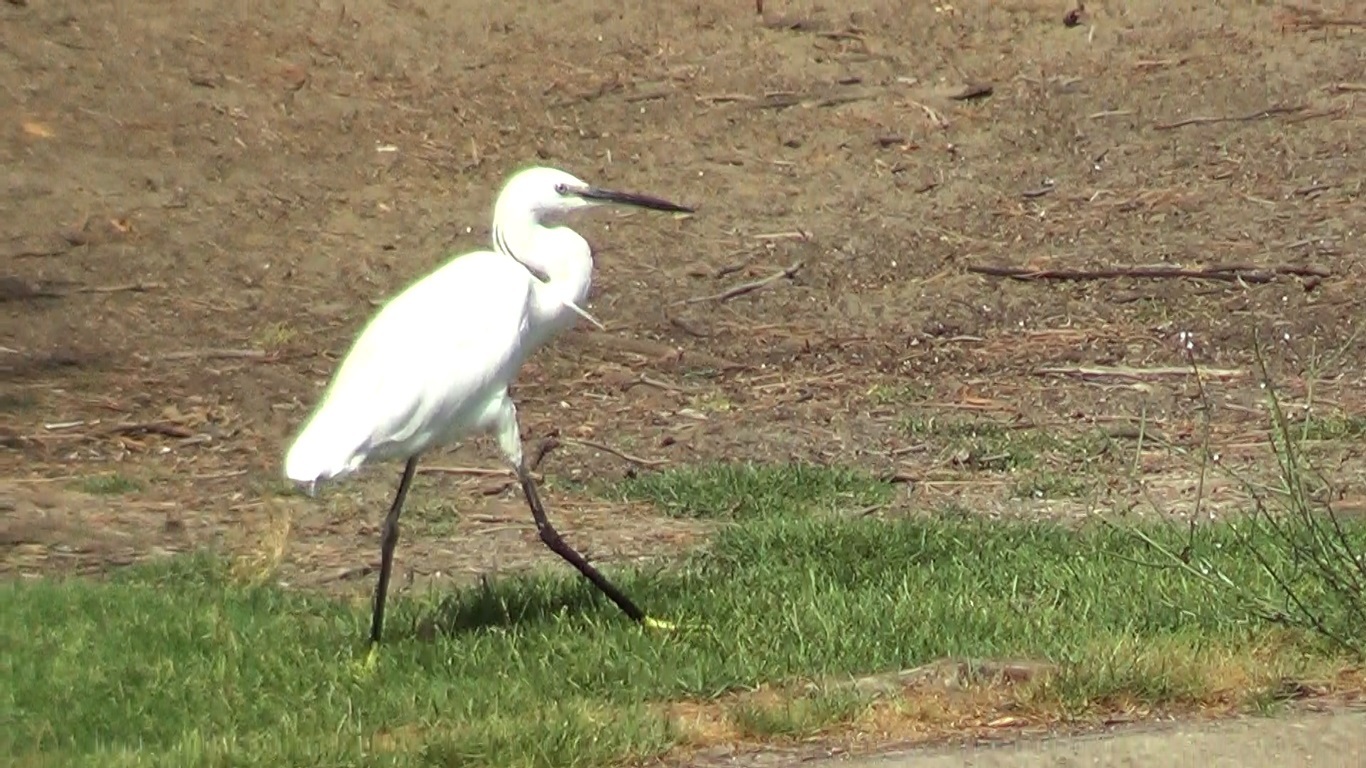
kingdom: Animalia
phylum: Chordata
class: Aves
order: Pelecaniformes
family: Ardeidae
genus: Egretta
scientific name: Egretta garzetta
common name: Little egret
